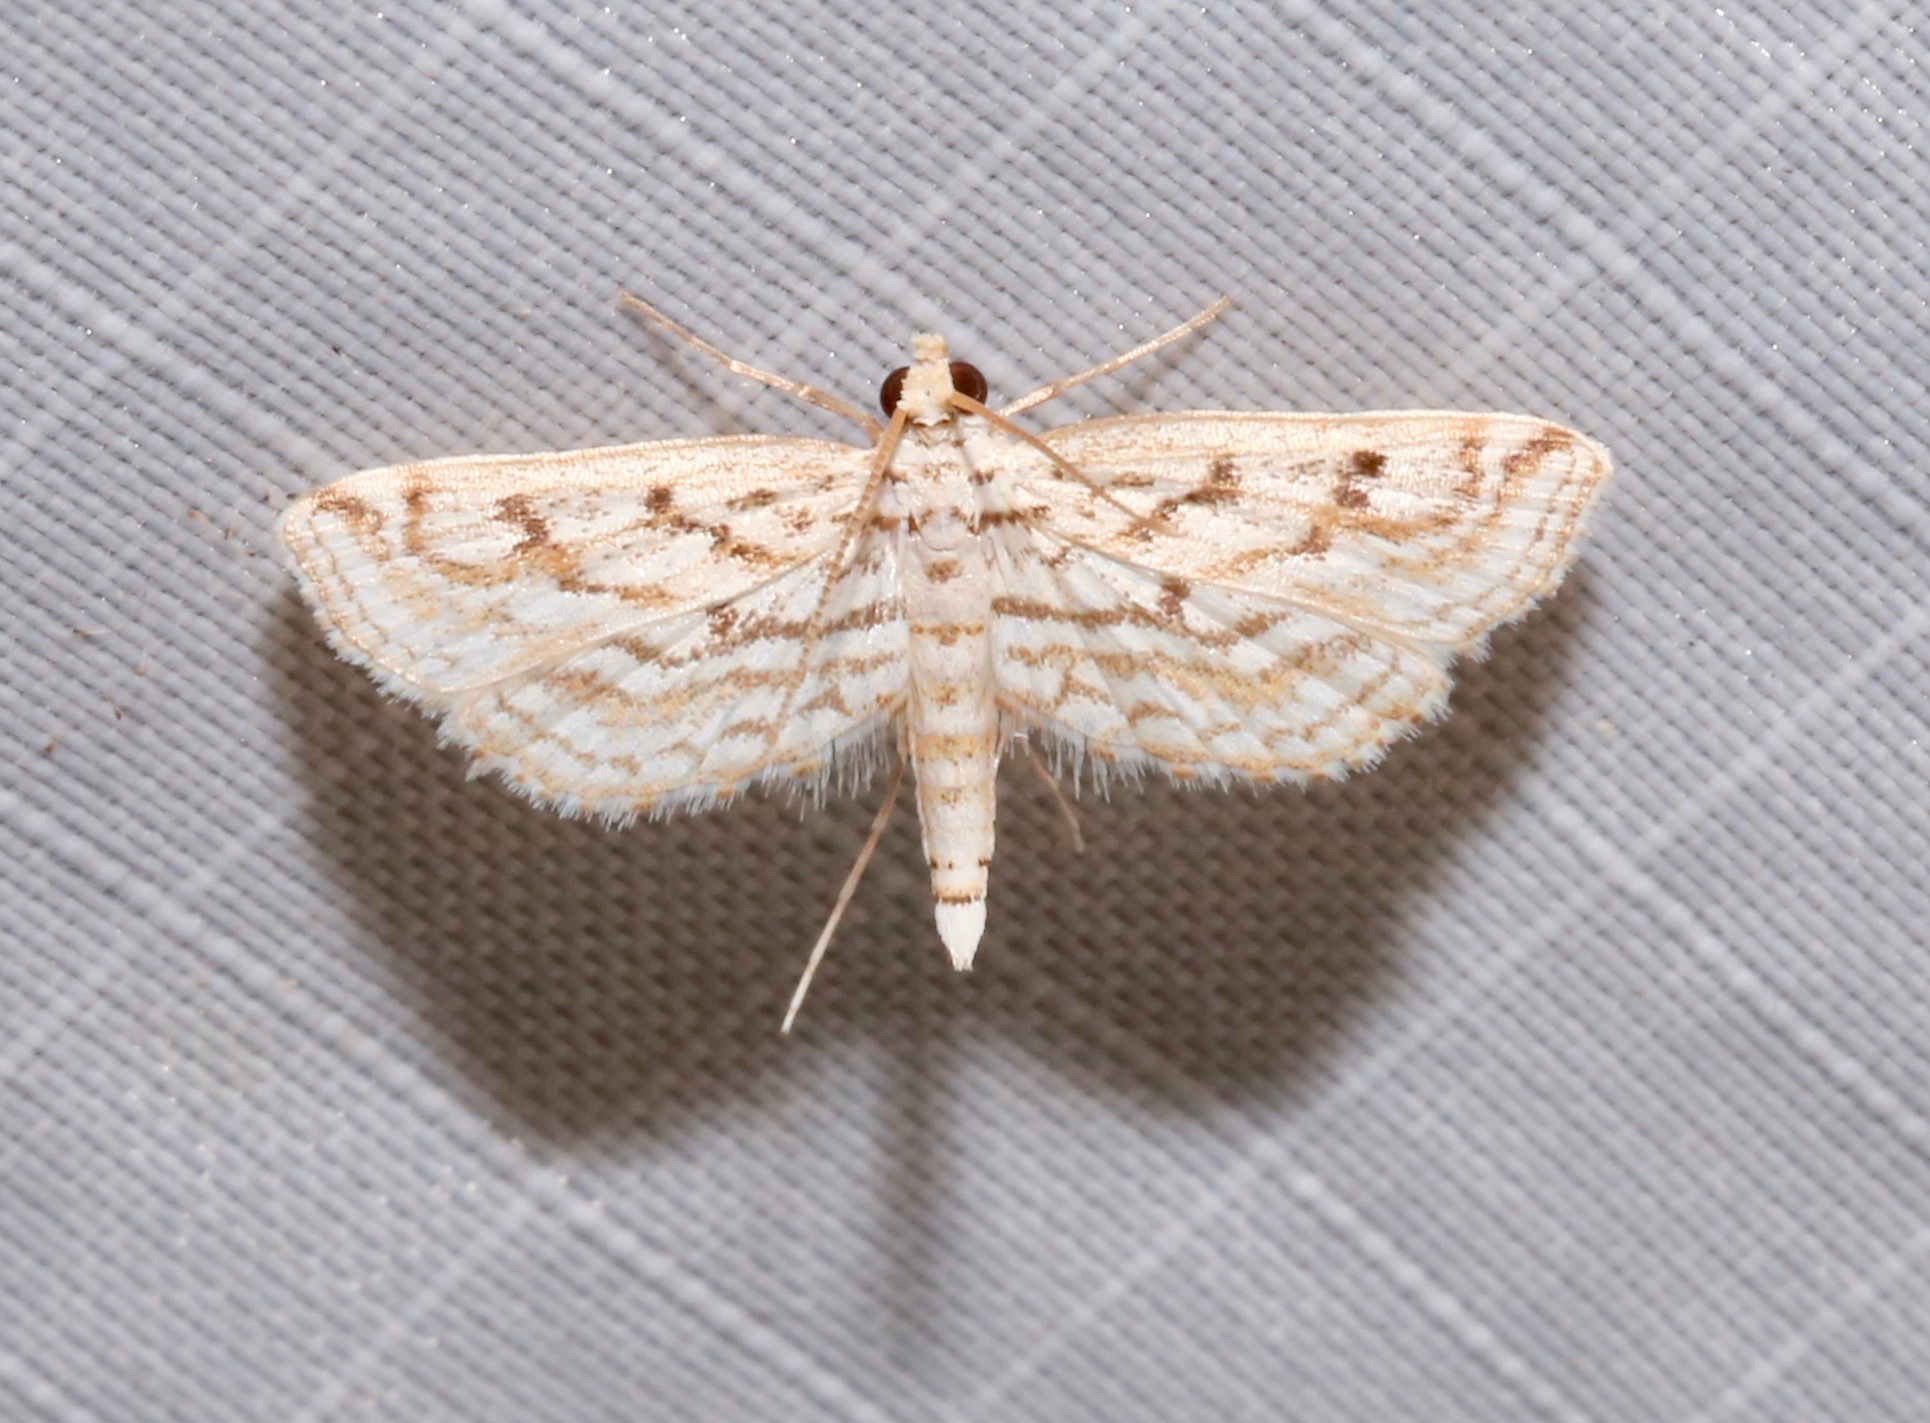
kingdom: Animalia
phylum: Arthropoda
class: Insecta
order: Lepidoptera
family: Crambidae
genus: Parapoynx
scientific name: Parapoynx allionealis
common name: Bladderwort casemaker
